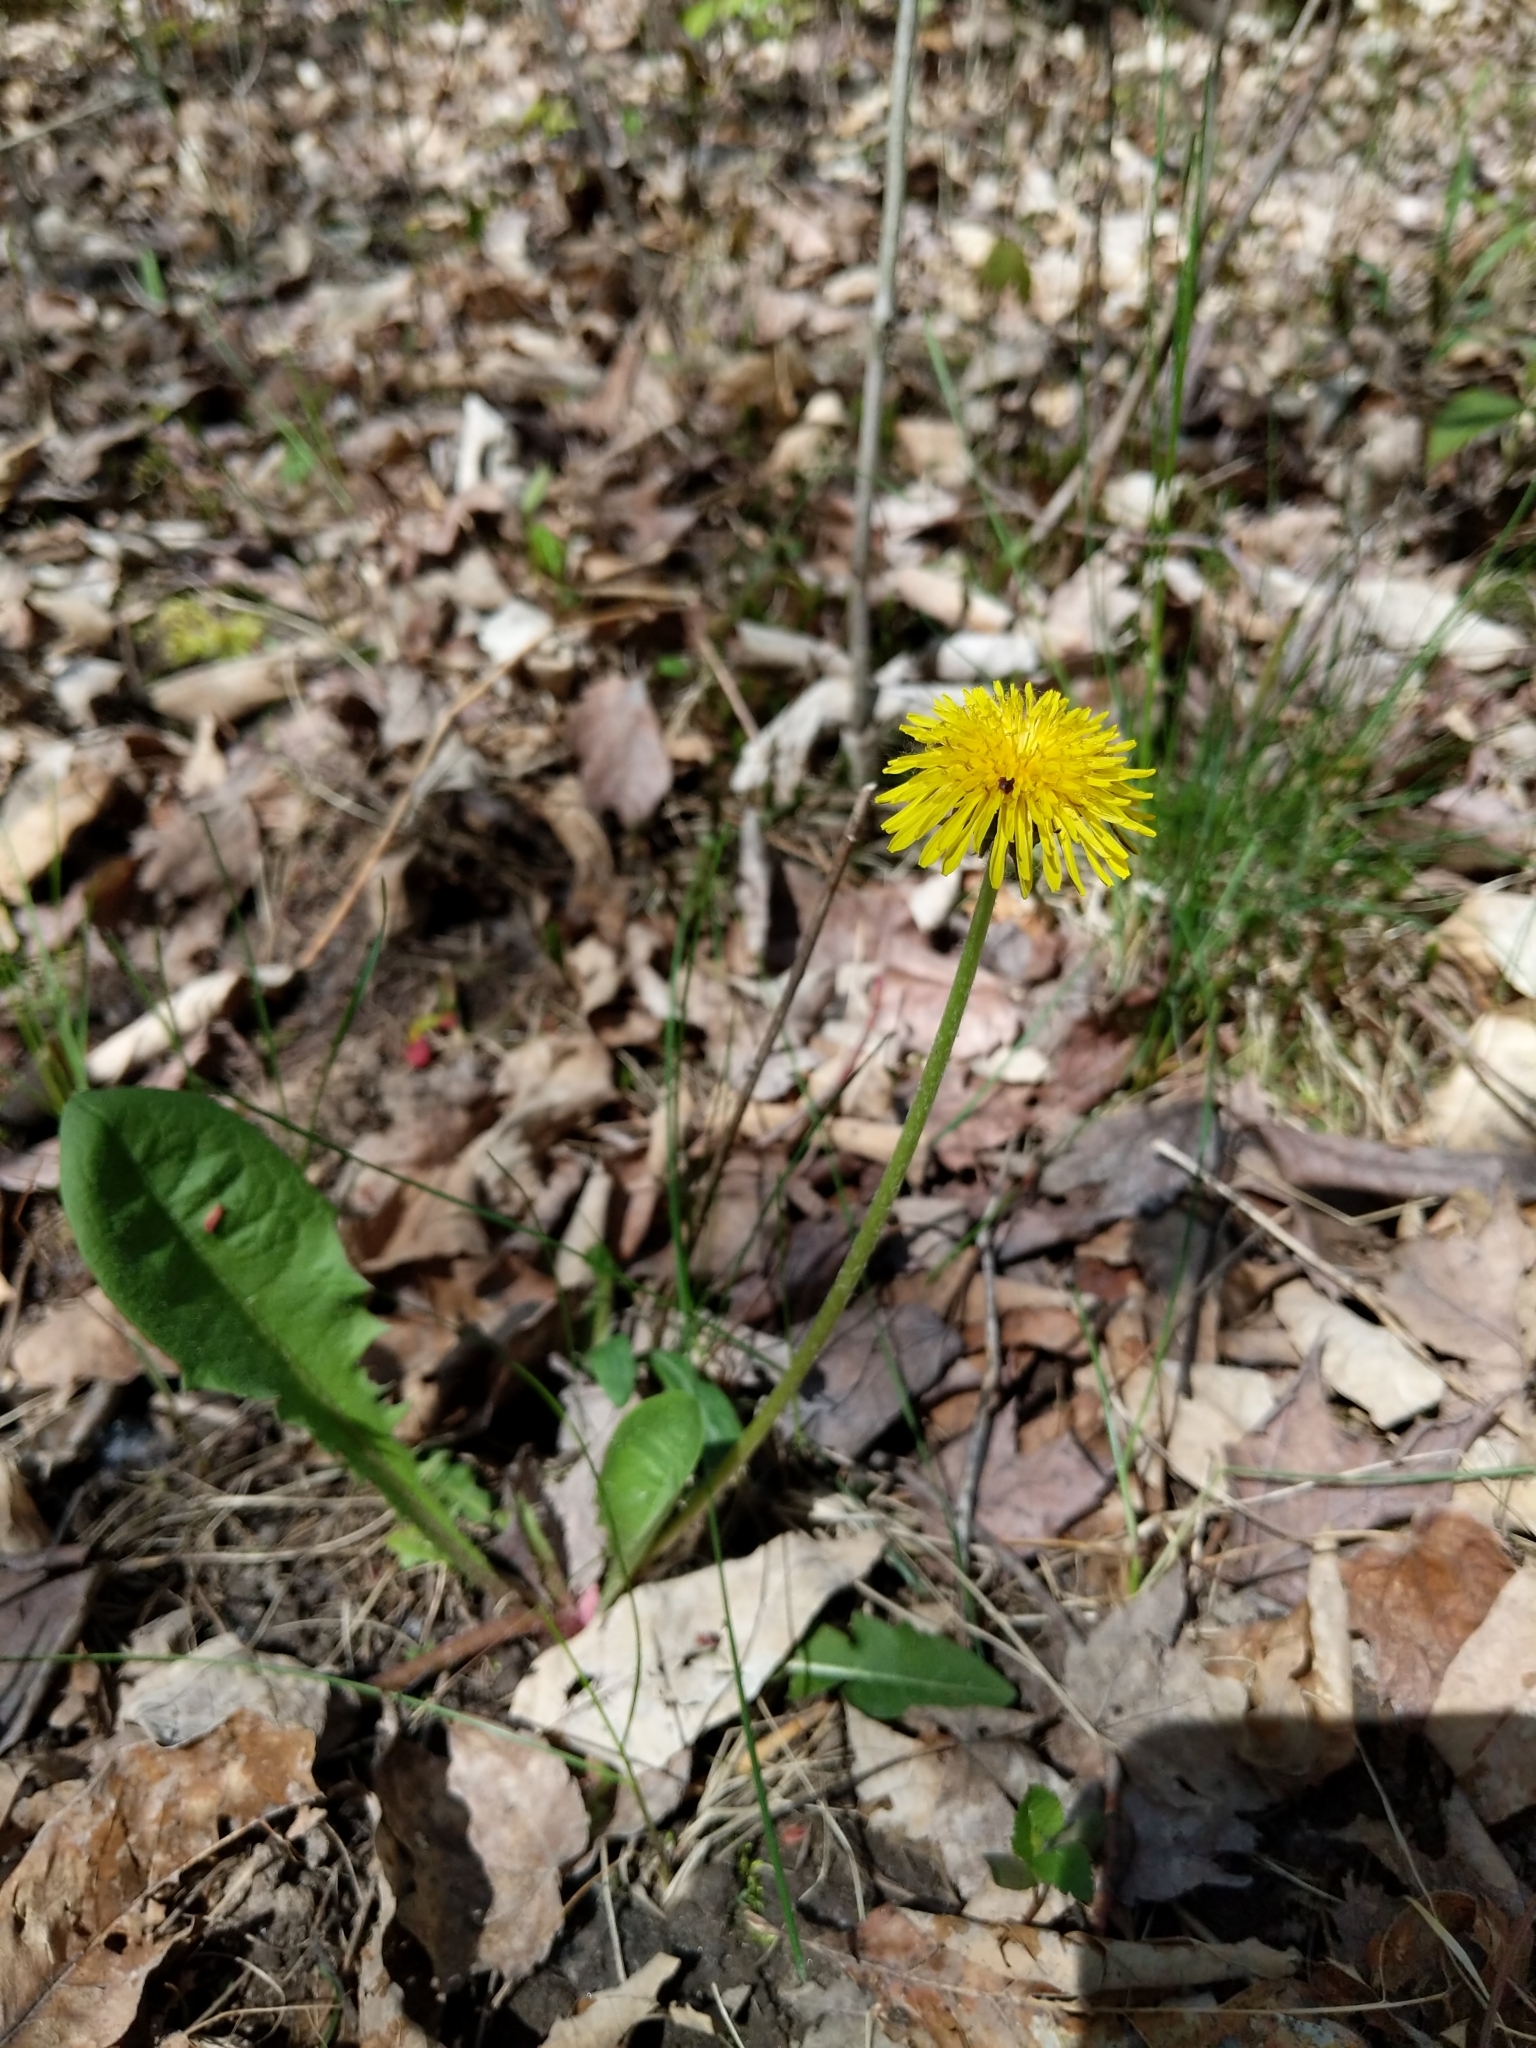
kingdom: Plantae
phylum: Tracheophyta
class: Magnoliopsida
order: Asterales
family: Asteraceae
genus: Taraxacum
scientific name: Taraxacum officinale
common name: Common dandelion
